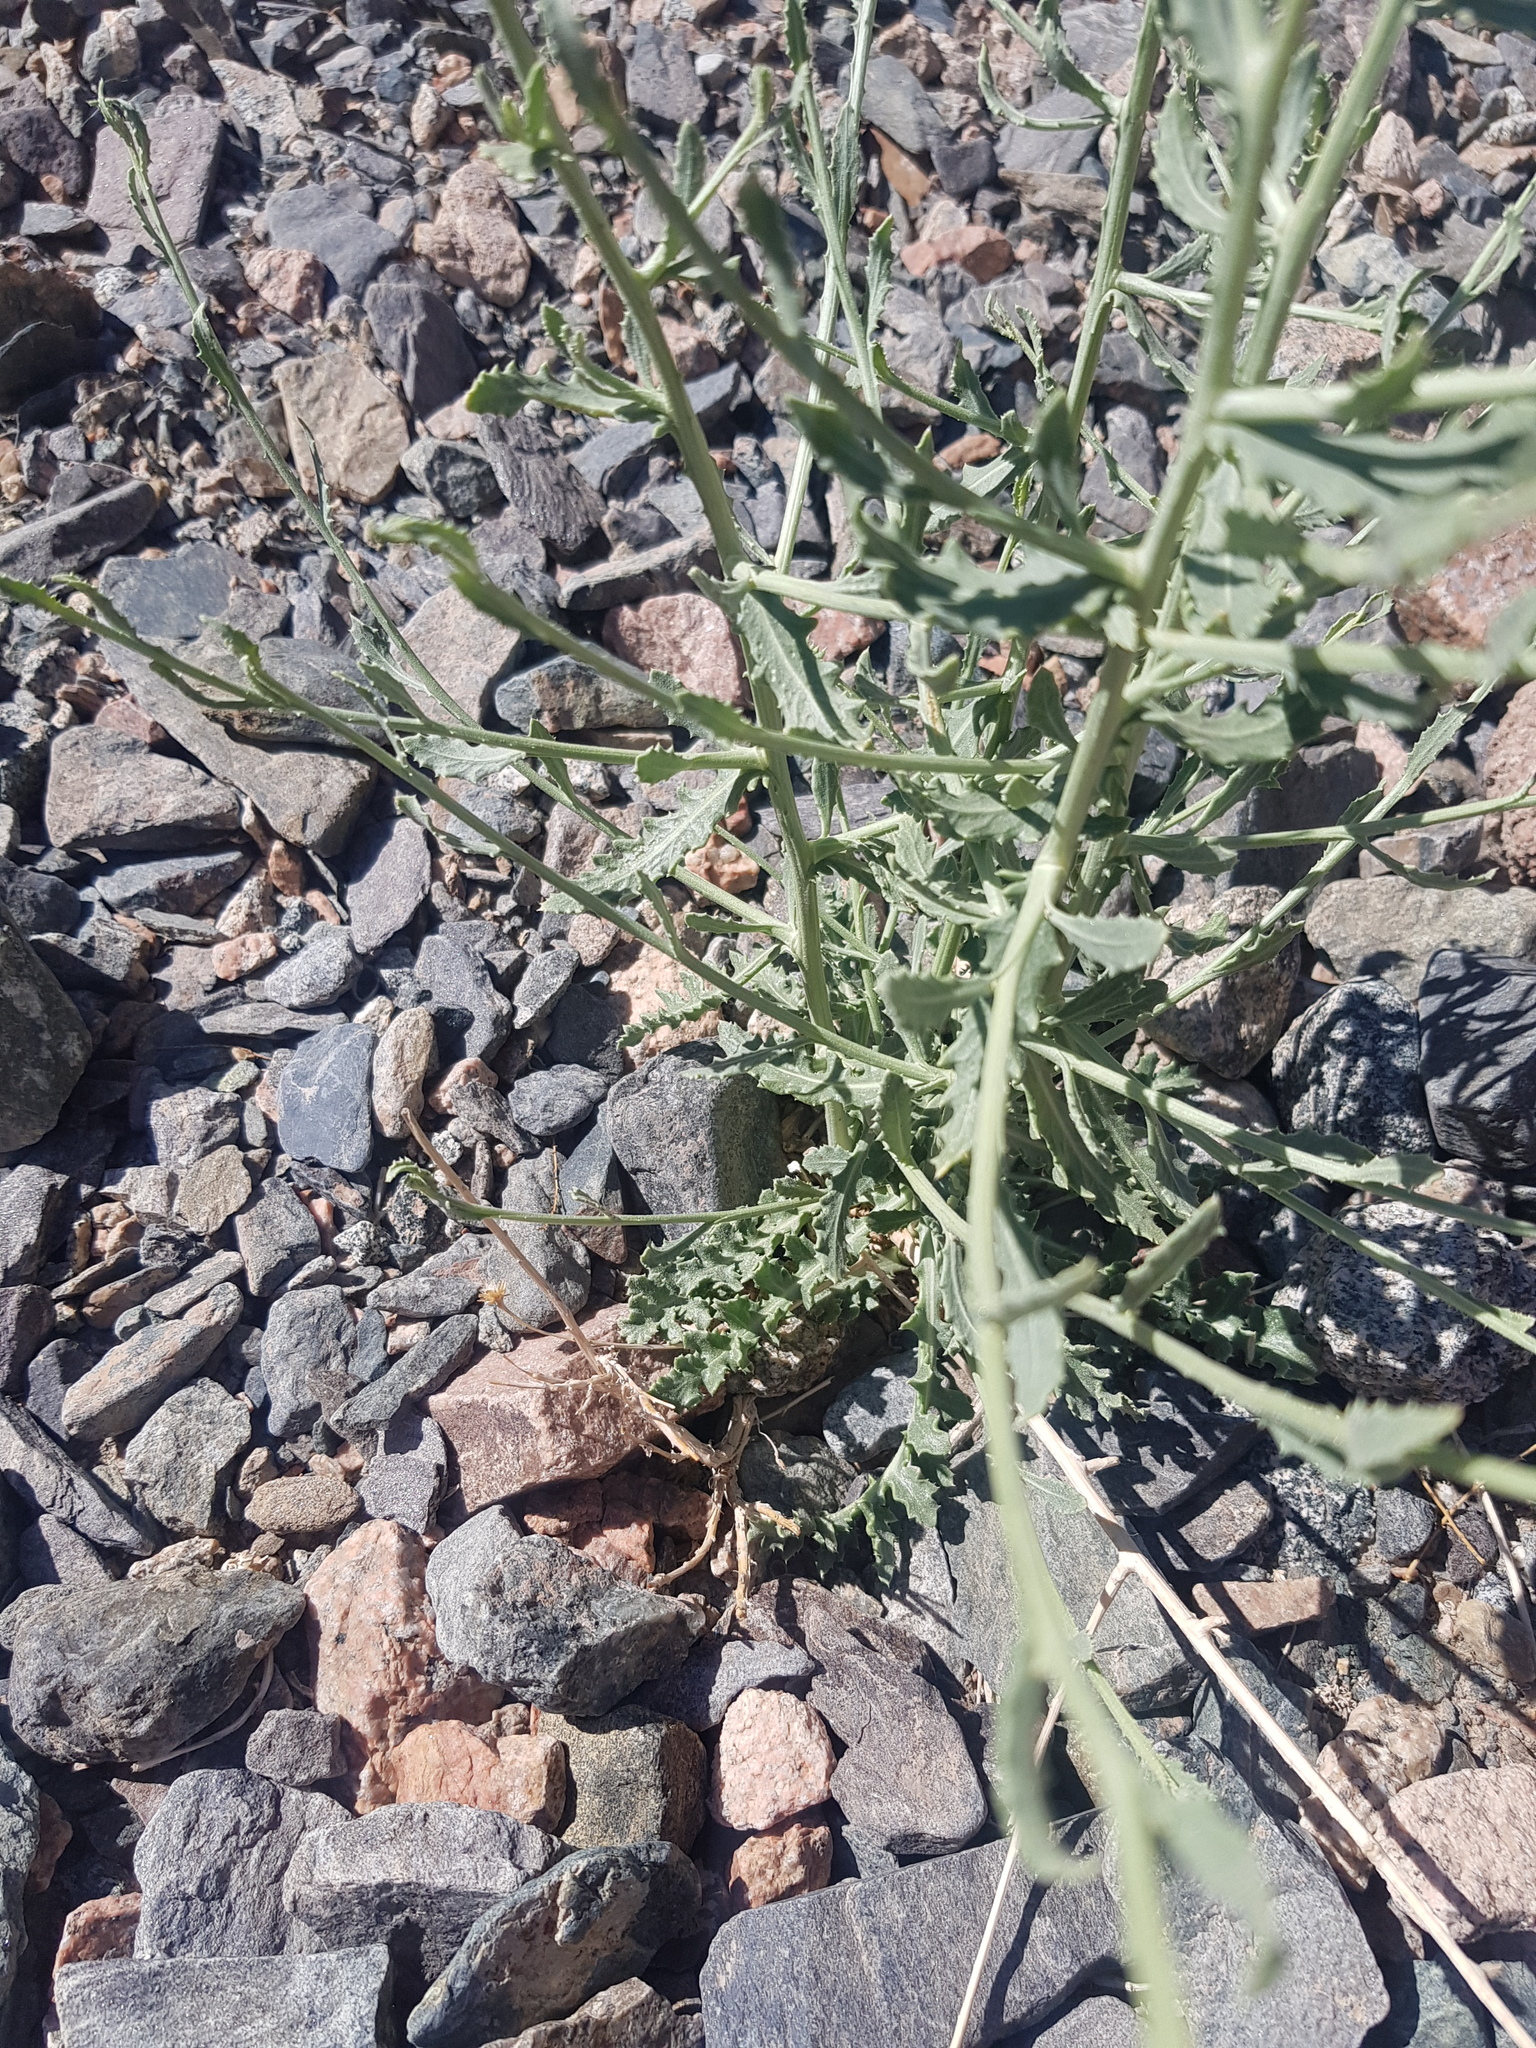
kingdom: Plantae
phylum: Tracheophyta
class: Magnoliopsida
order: Asterales
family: Asteraceae
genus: Lactuca
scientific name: Lactuca tatarica
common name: Blue lettuce
